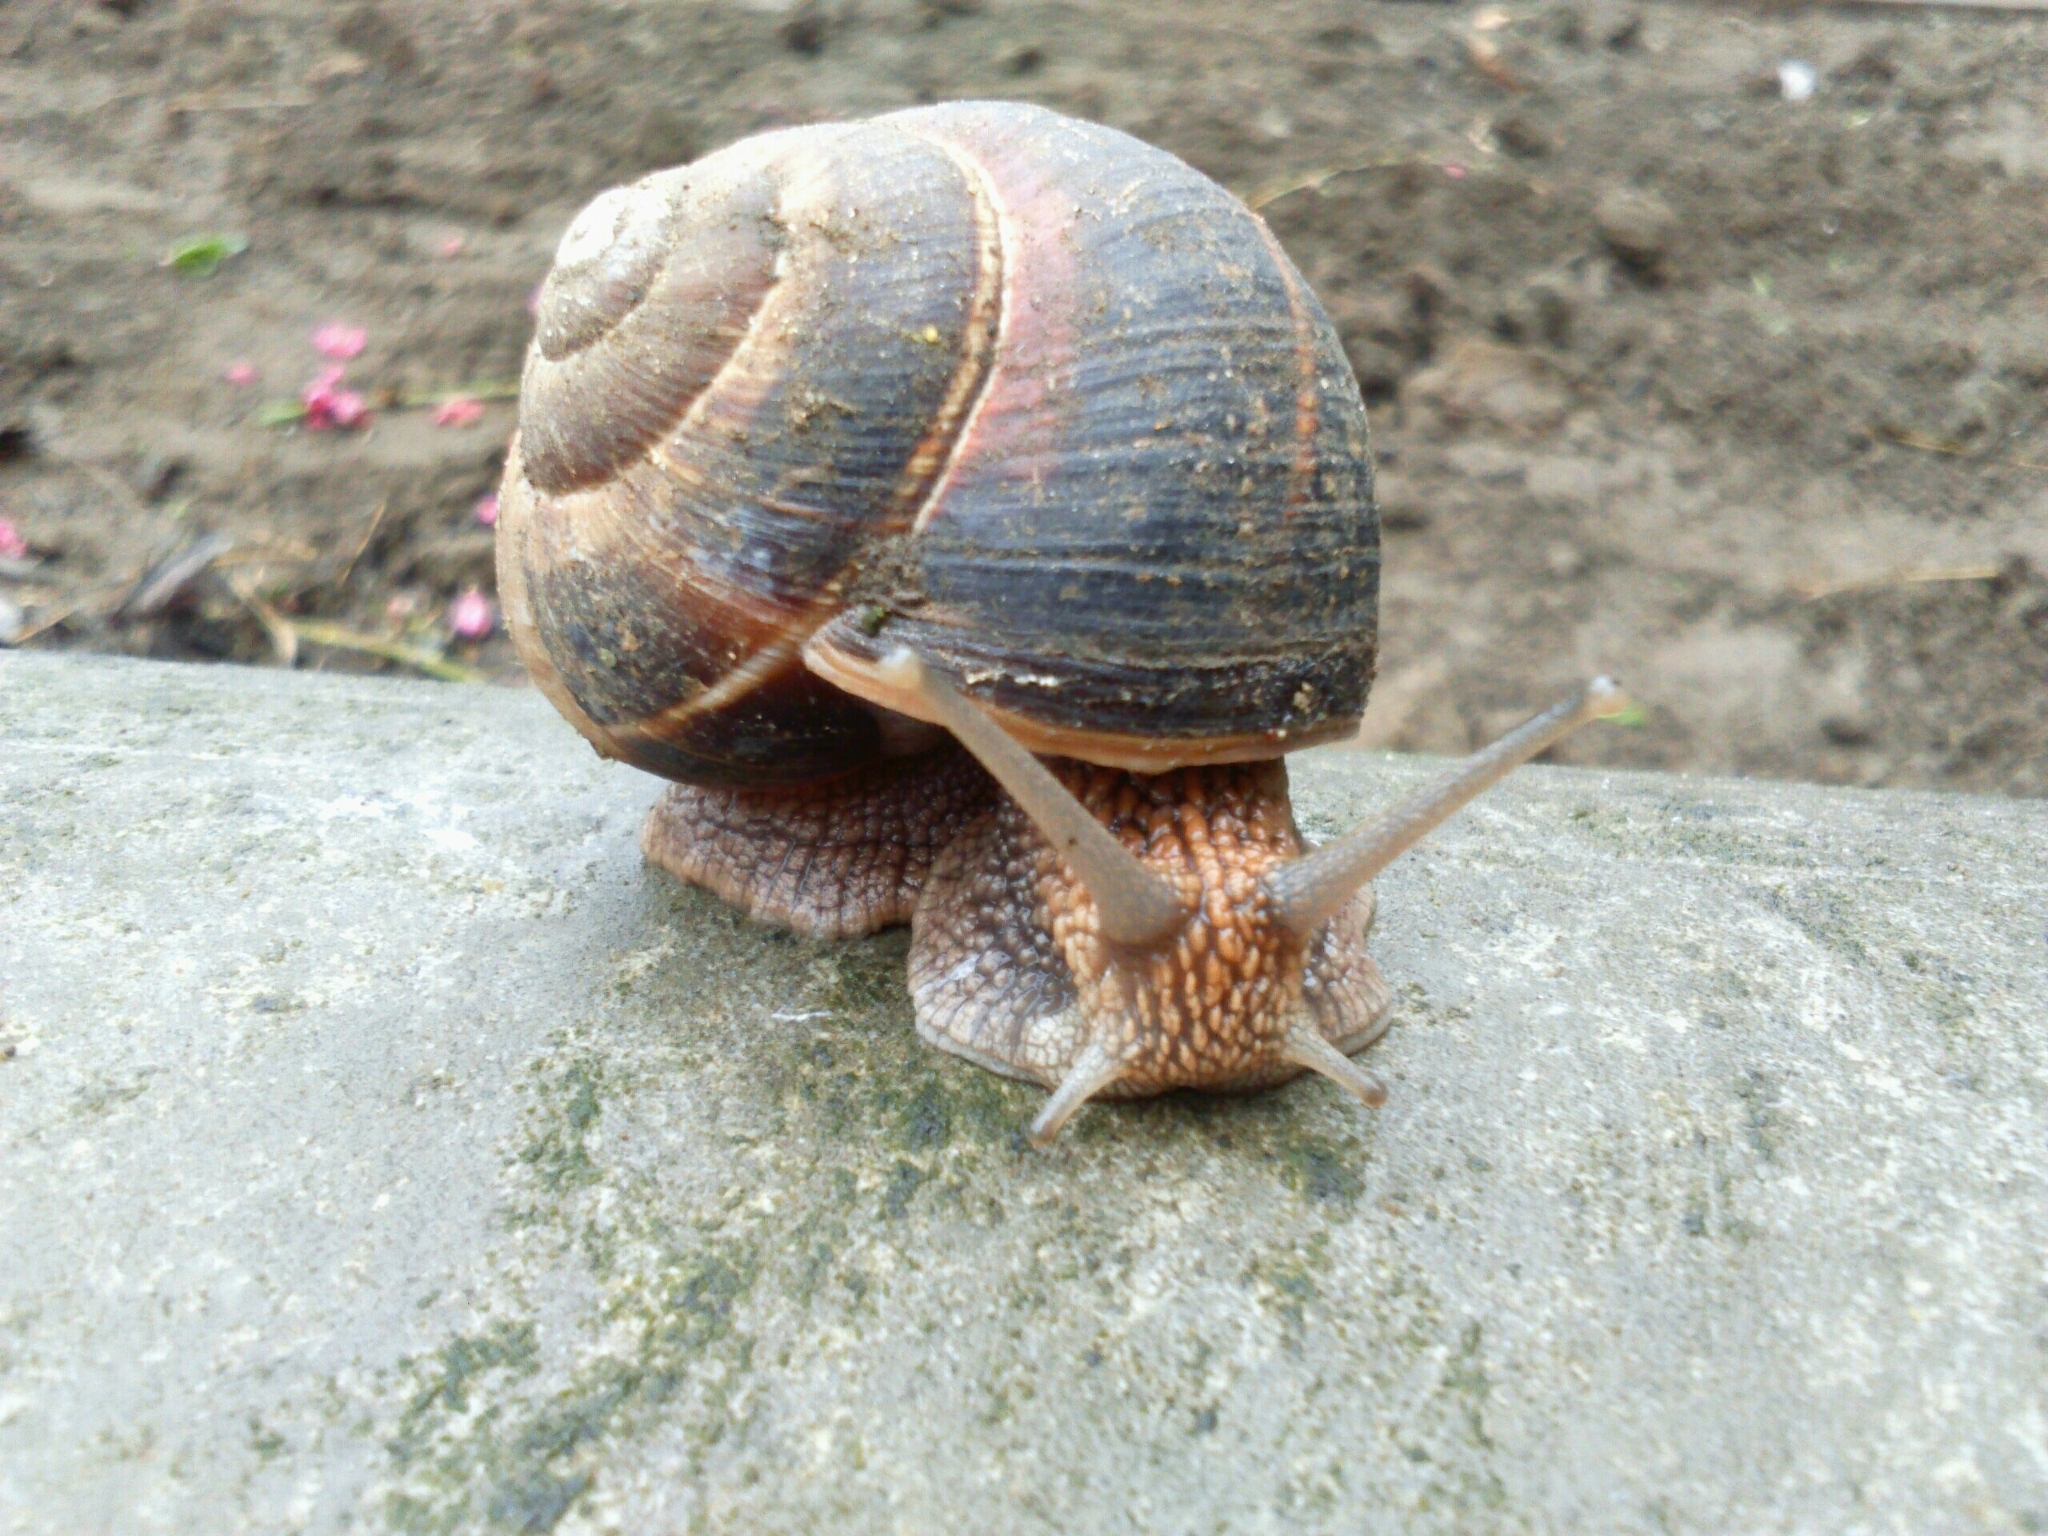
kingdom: Animalia
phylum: Mollusca
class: Gastropoda
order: Stylommatophora
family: Helicidae
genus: Helix
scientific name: Helix lucorum
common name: Turkish snail
